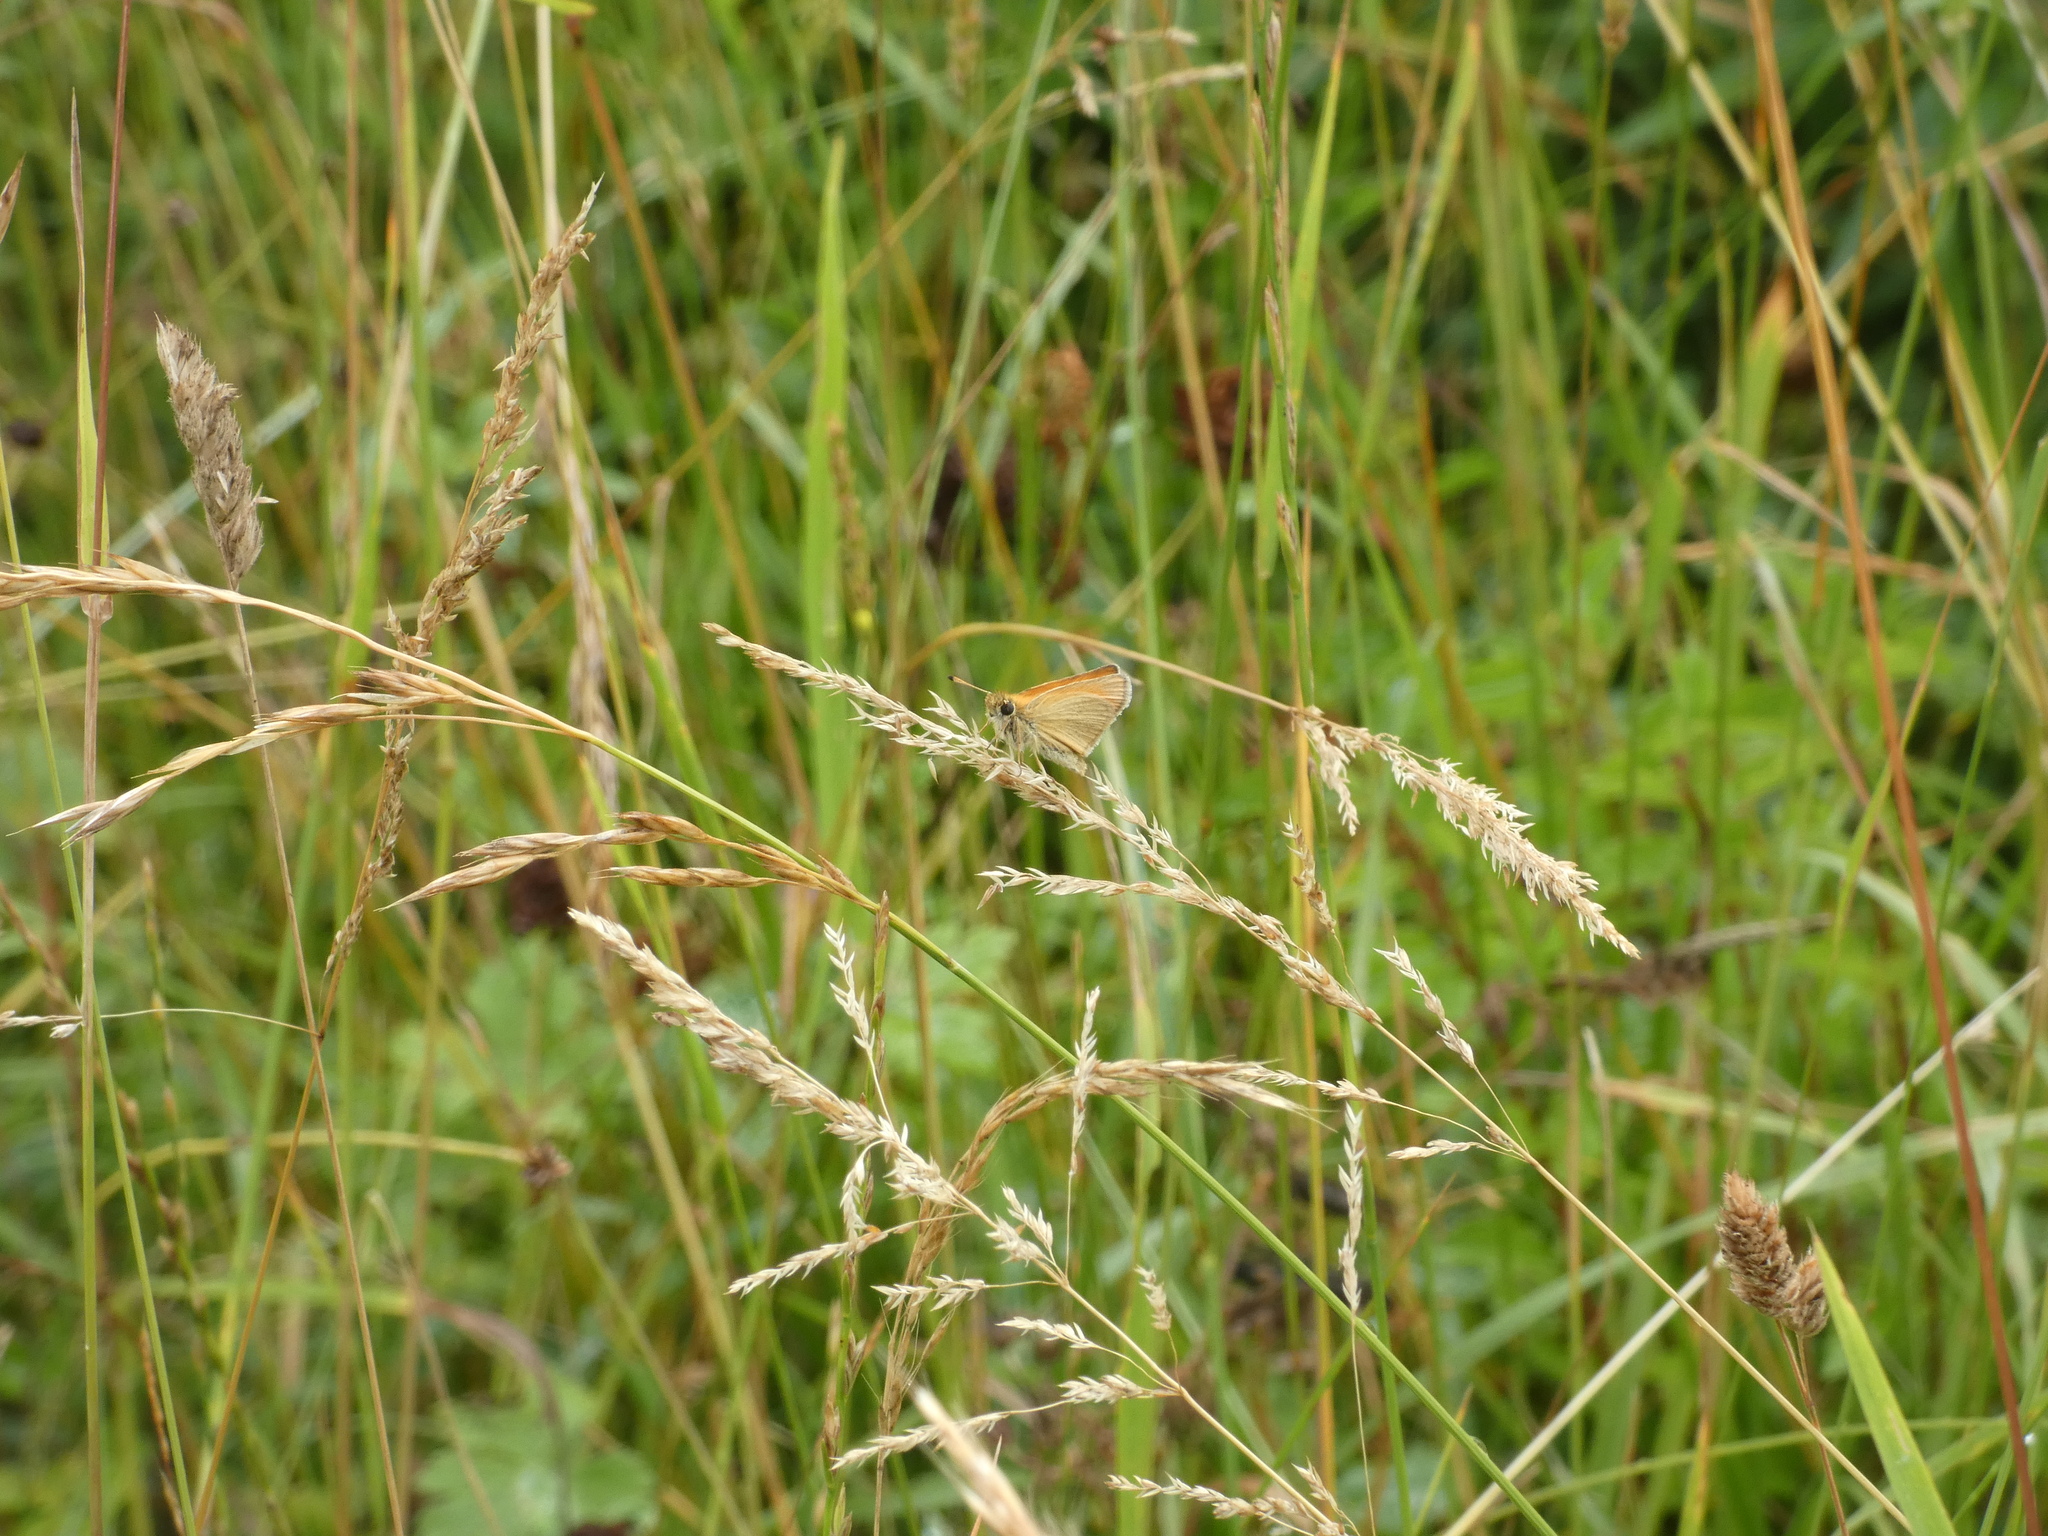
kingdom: Animalia
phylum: Arthropoda
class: Insecta
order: Lepidoptera
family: Hesperiidae
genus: Thymelicus
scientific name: Thymelicus lineola
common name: Essex skipper
